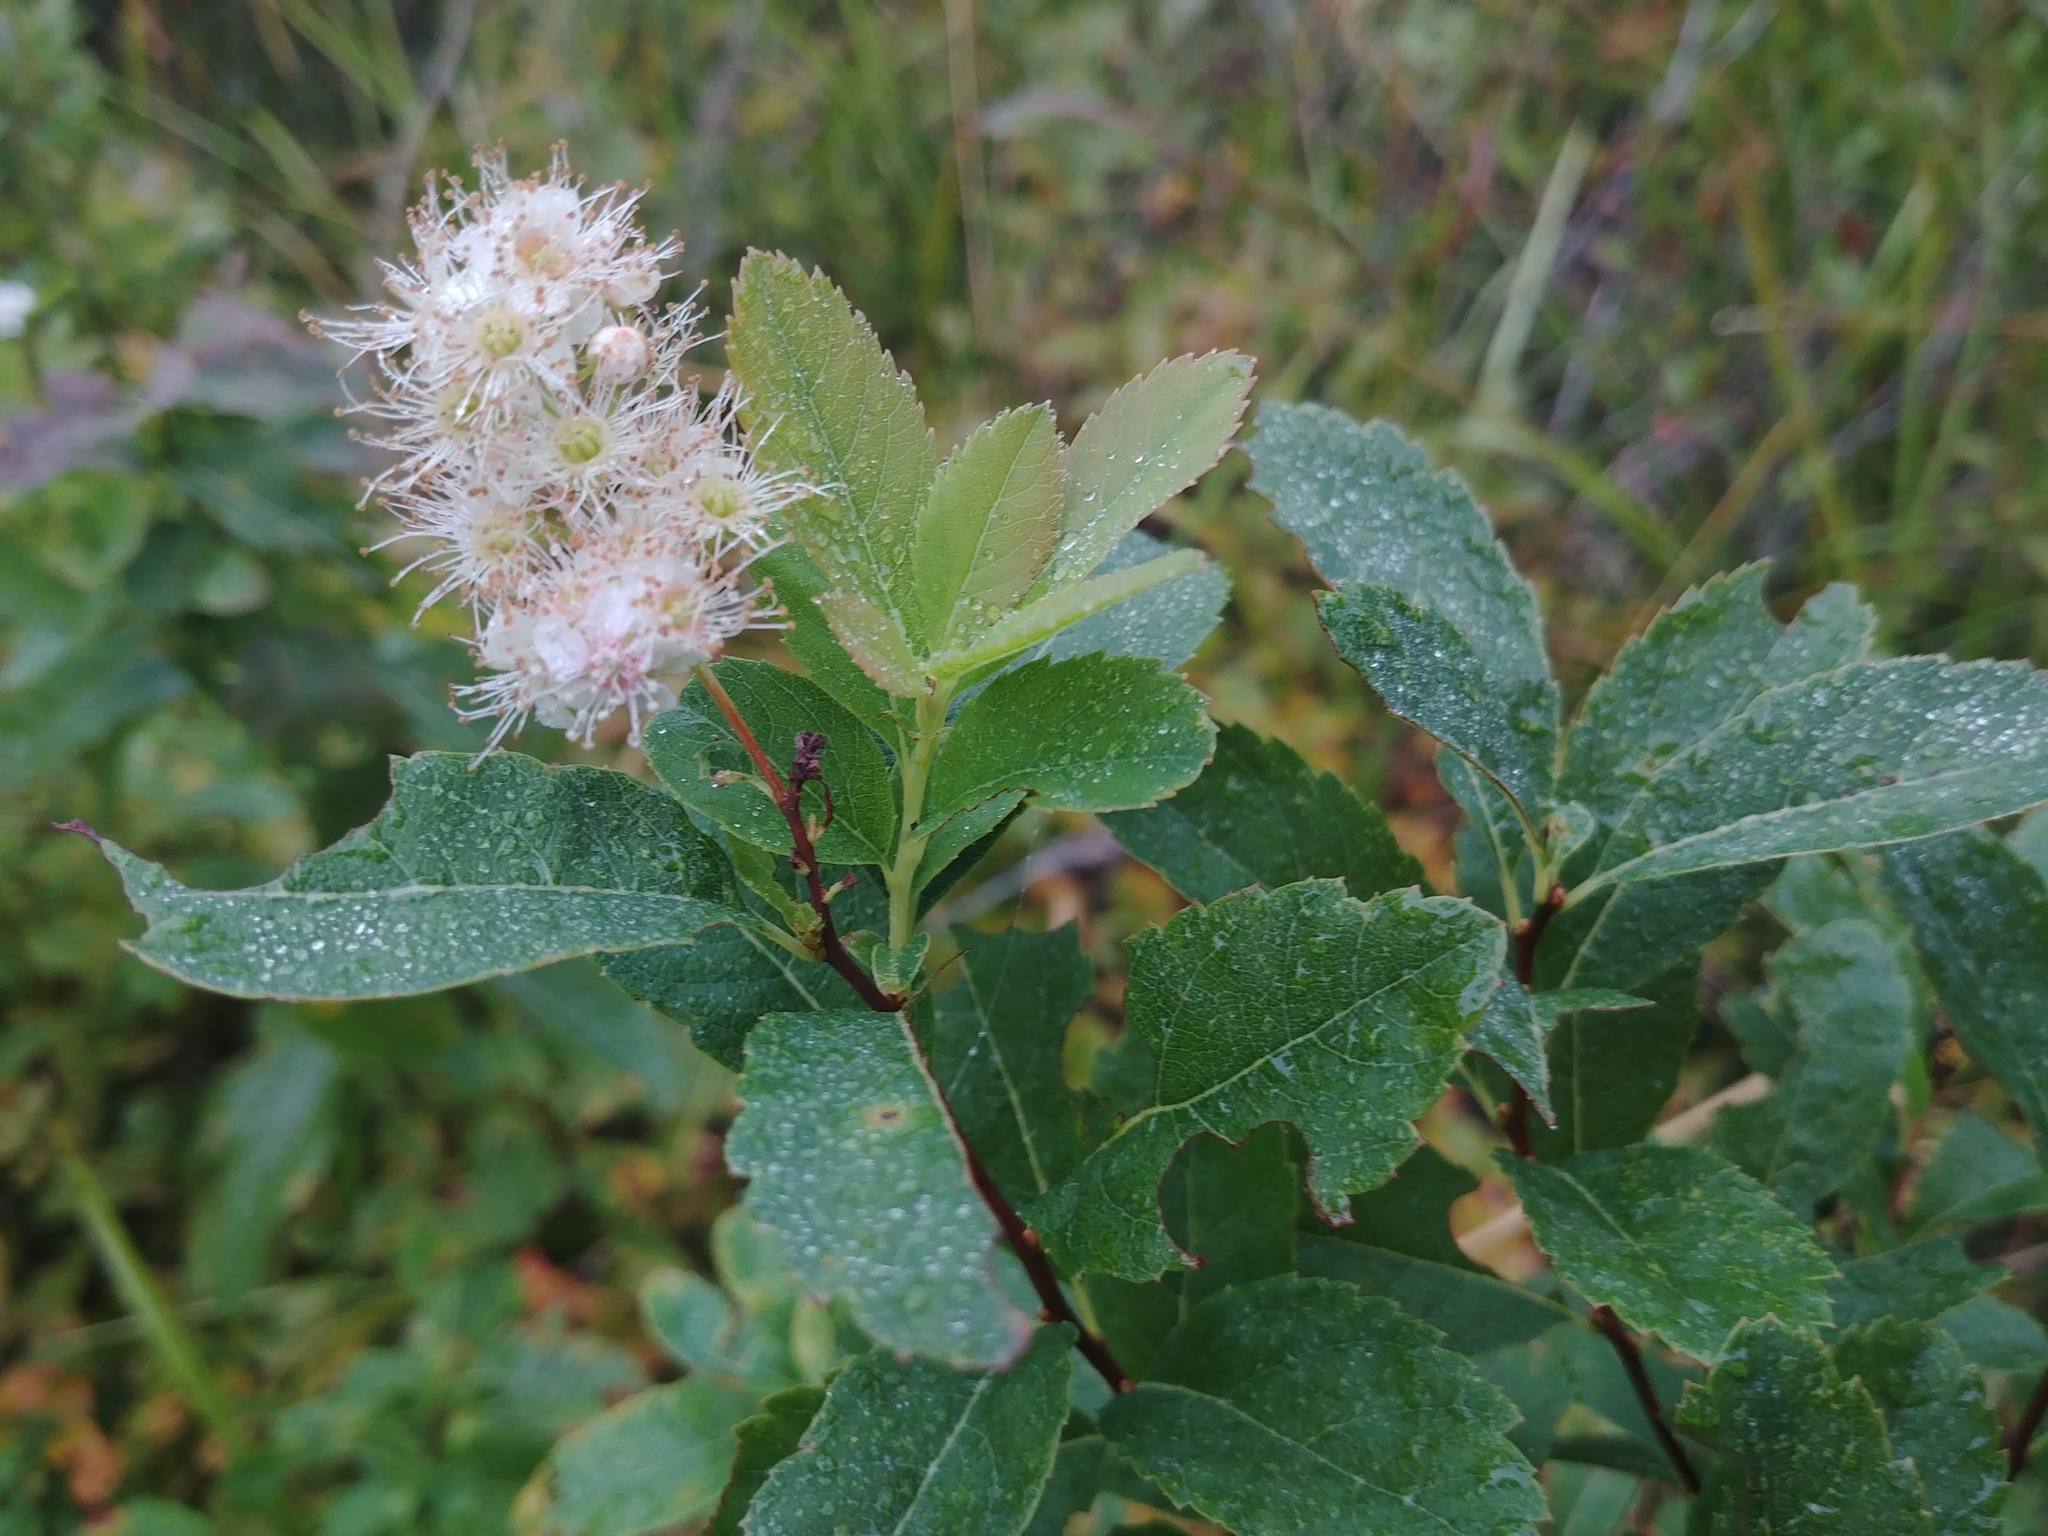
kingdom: Plantae
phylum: Tracheophyta
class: Magnoliopsida
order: Rosales
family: Rosaceae
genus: Spiraea
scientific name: Spiraea alba
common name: Pale bridewort
